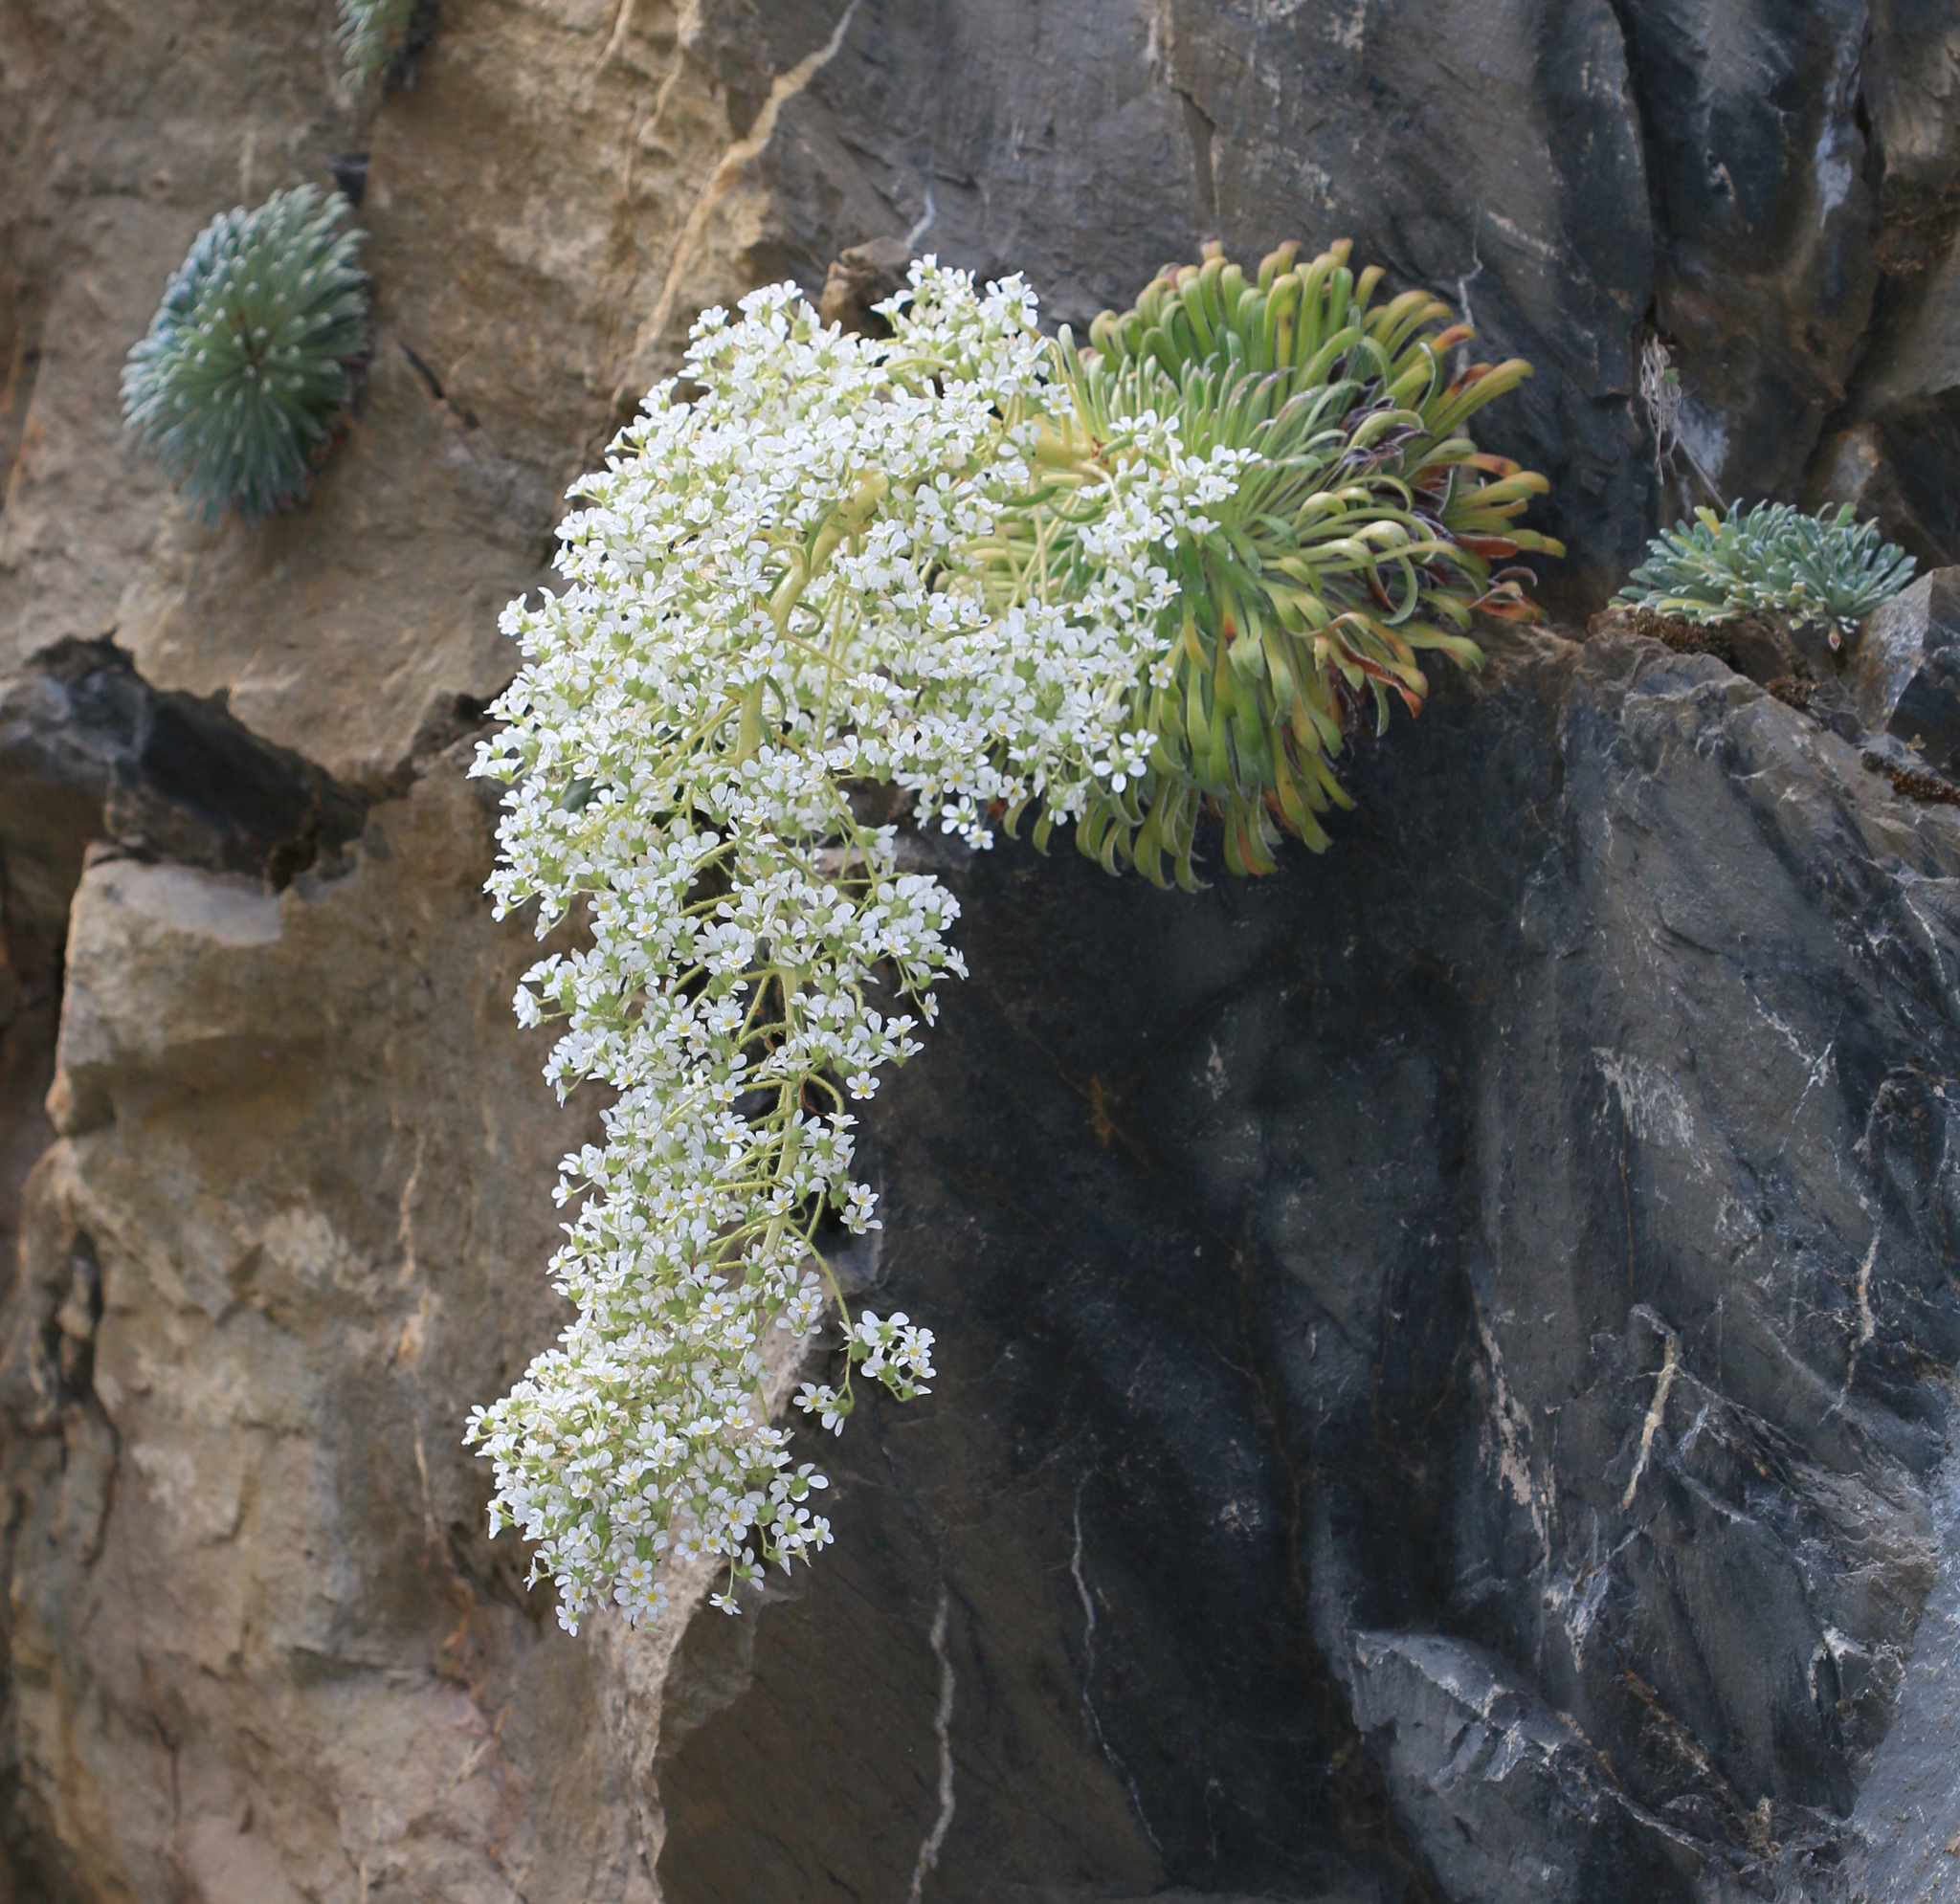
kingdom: Plantae
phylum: Tracheophyta
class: Magnoliopsida
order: Saxifragales
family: Saxifragaceae
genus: Saxifraga
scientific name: Saxifraga longifolia
